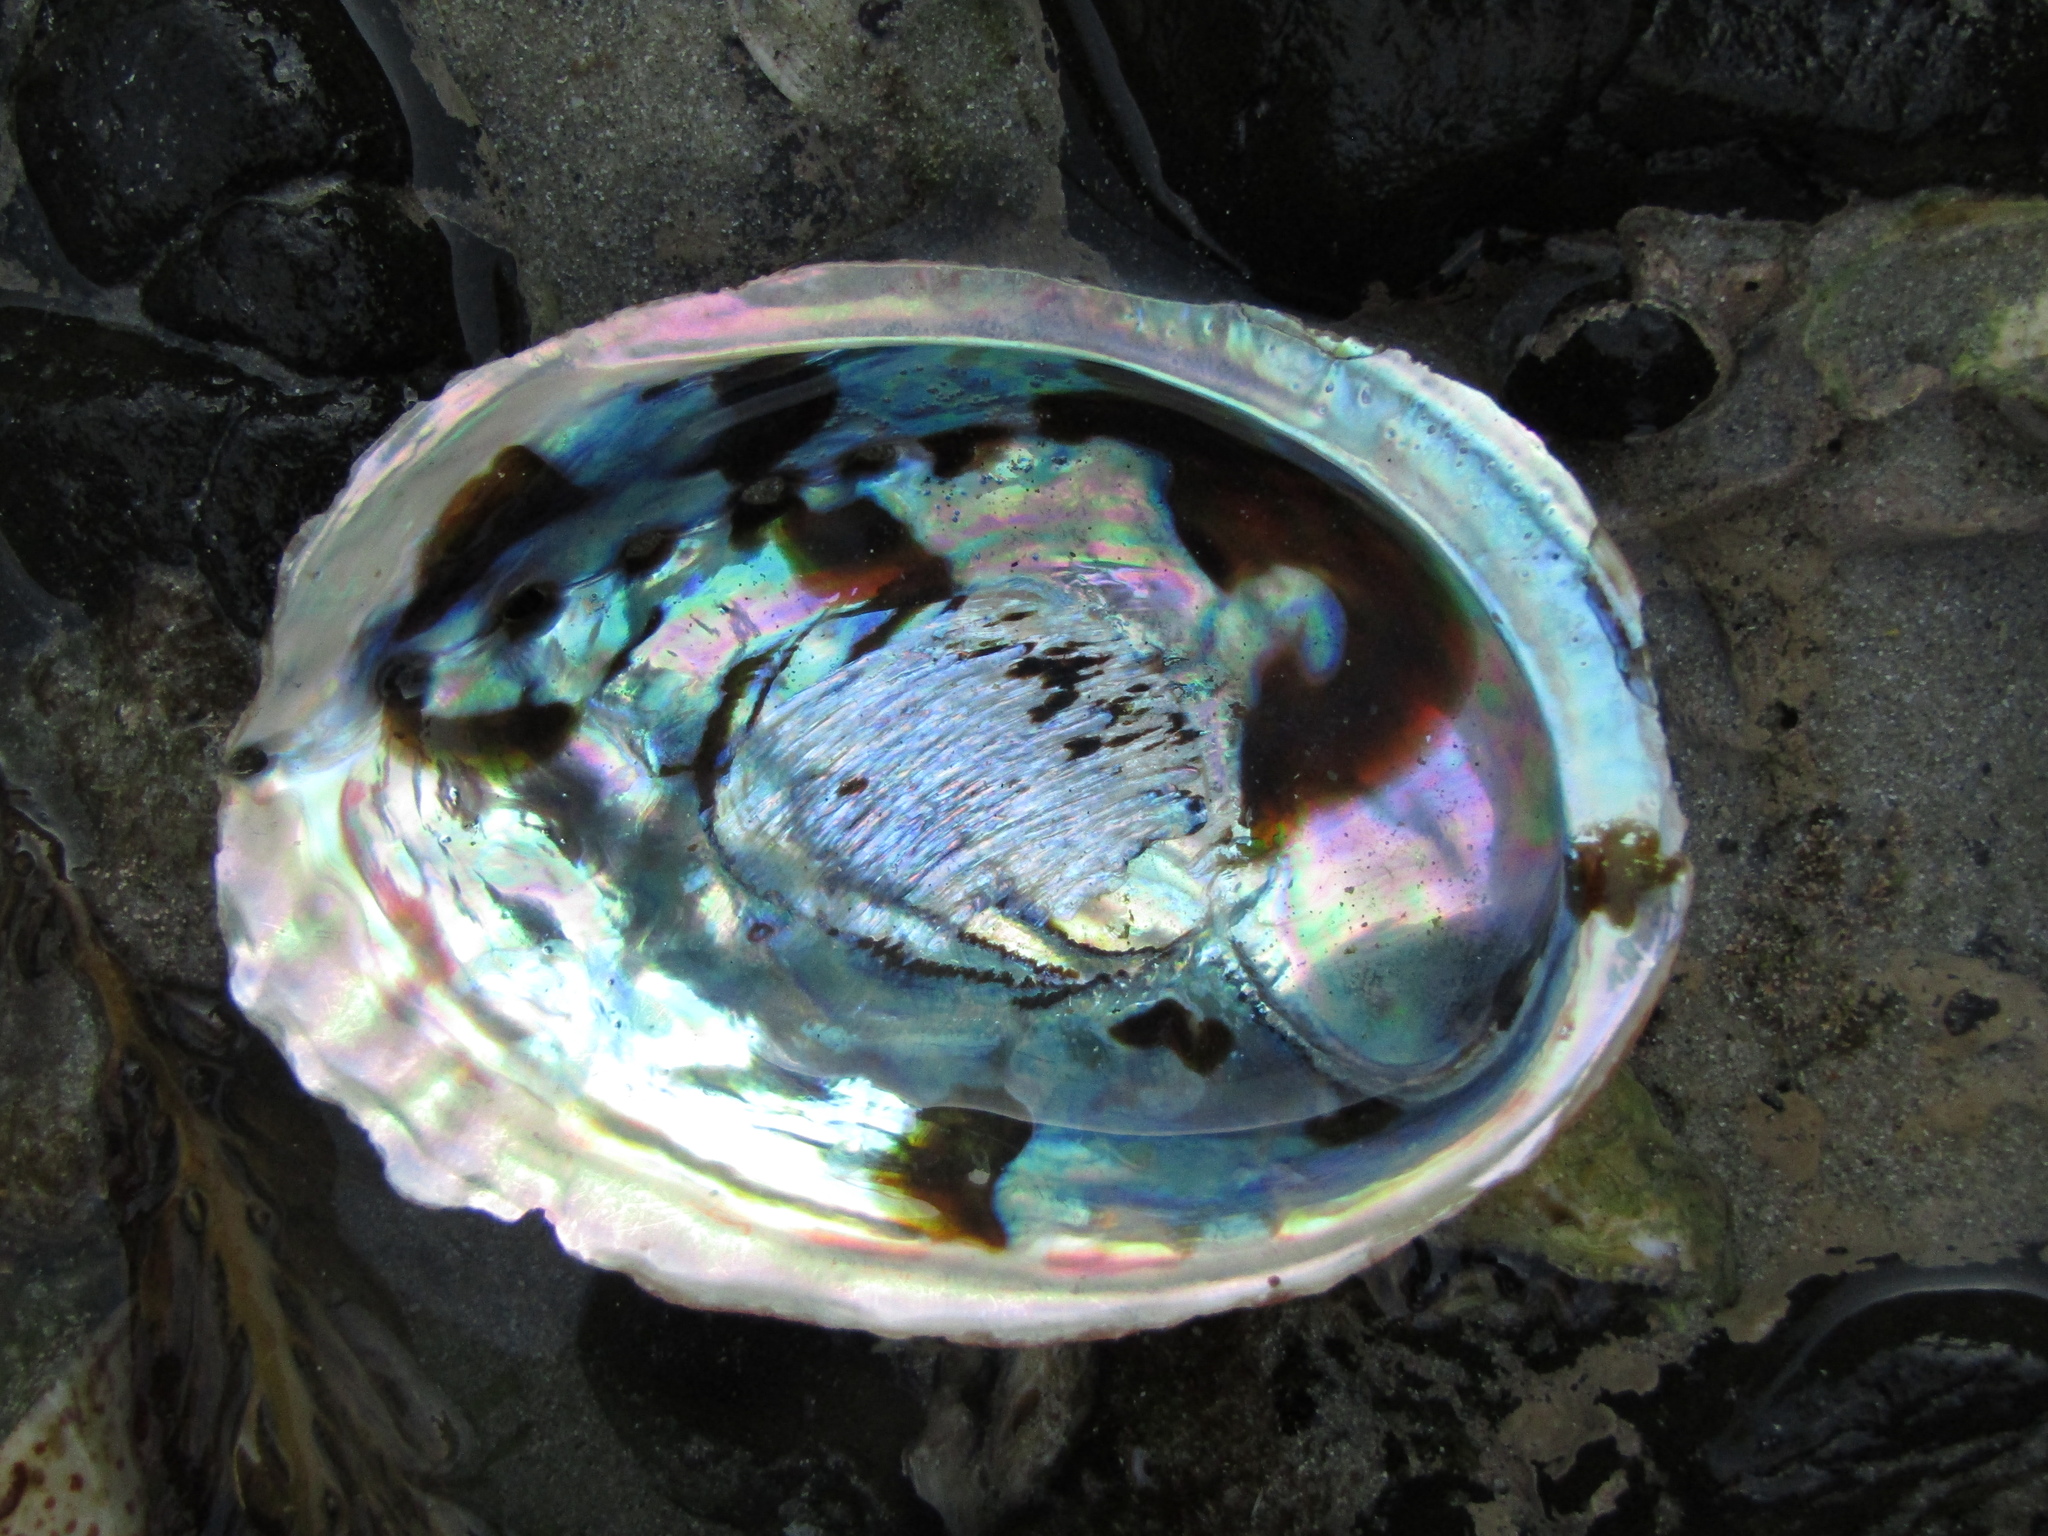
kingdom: Animalia
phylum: Mollusca
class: Gastropoda
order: Lepetellida
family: Haliotidae
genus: Haliotis
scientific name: Haliotis iris
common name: Abalone
